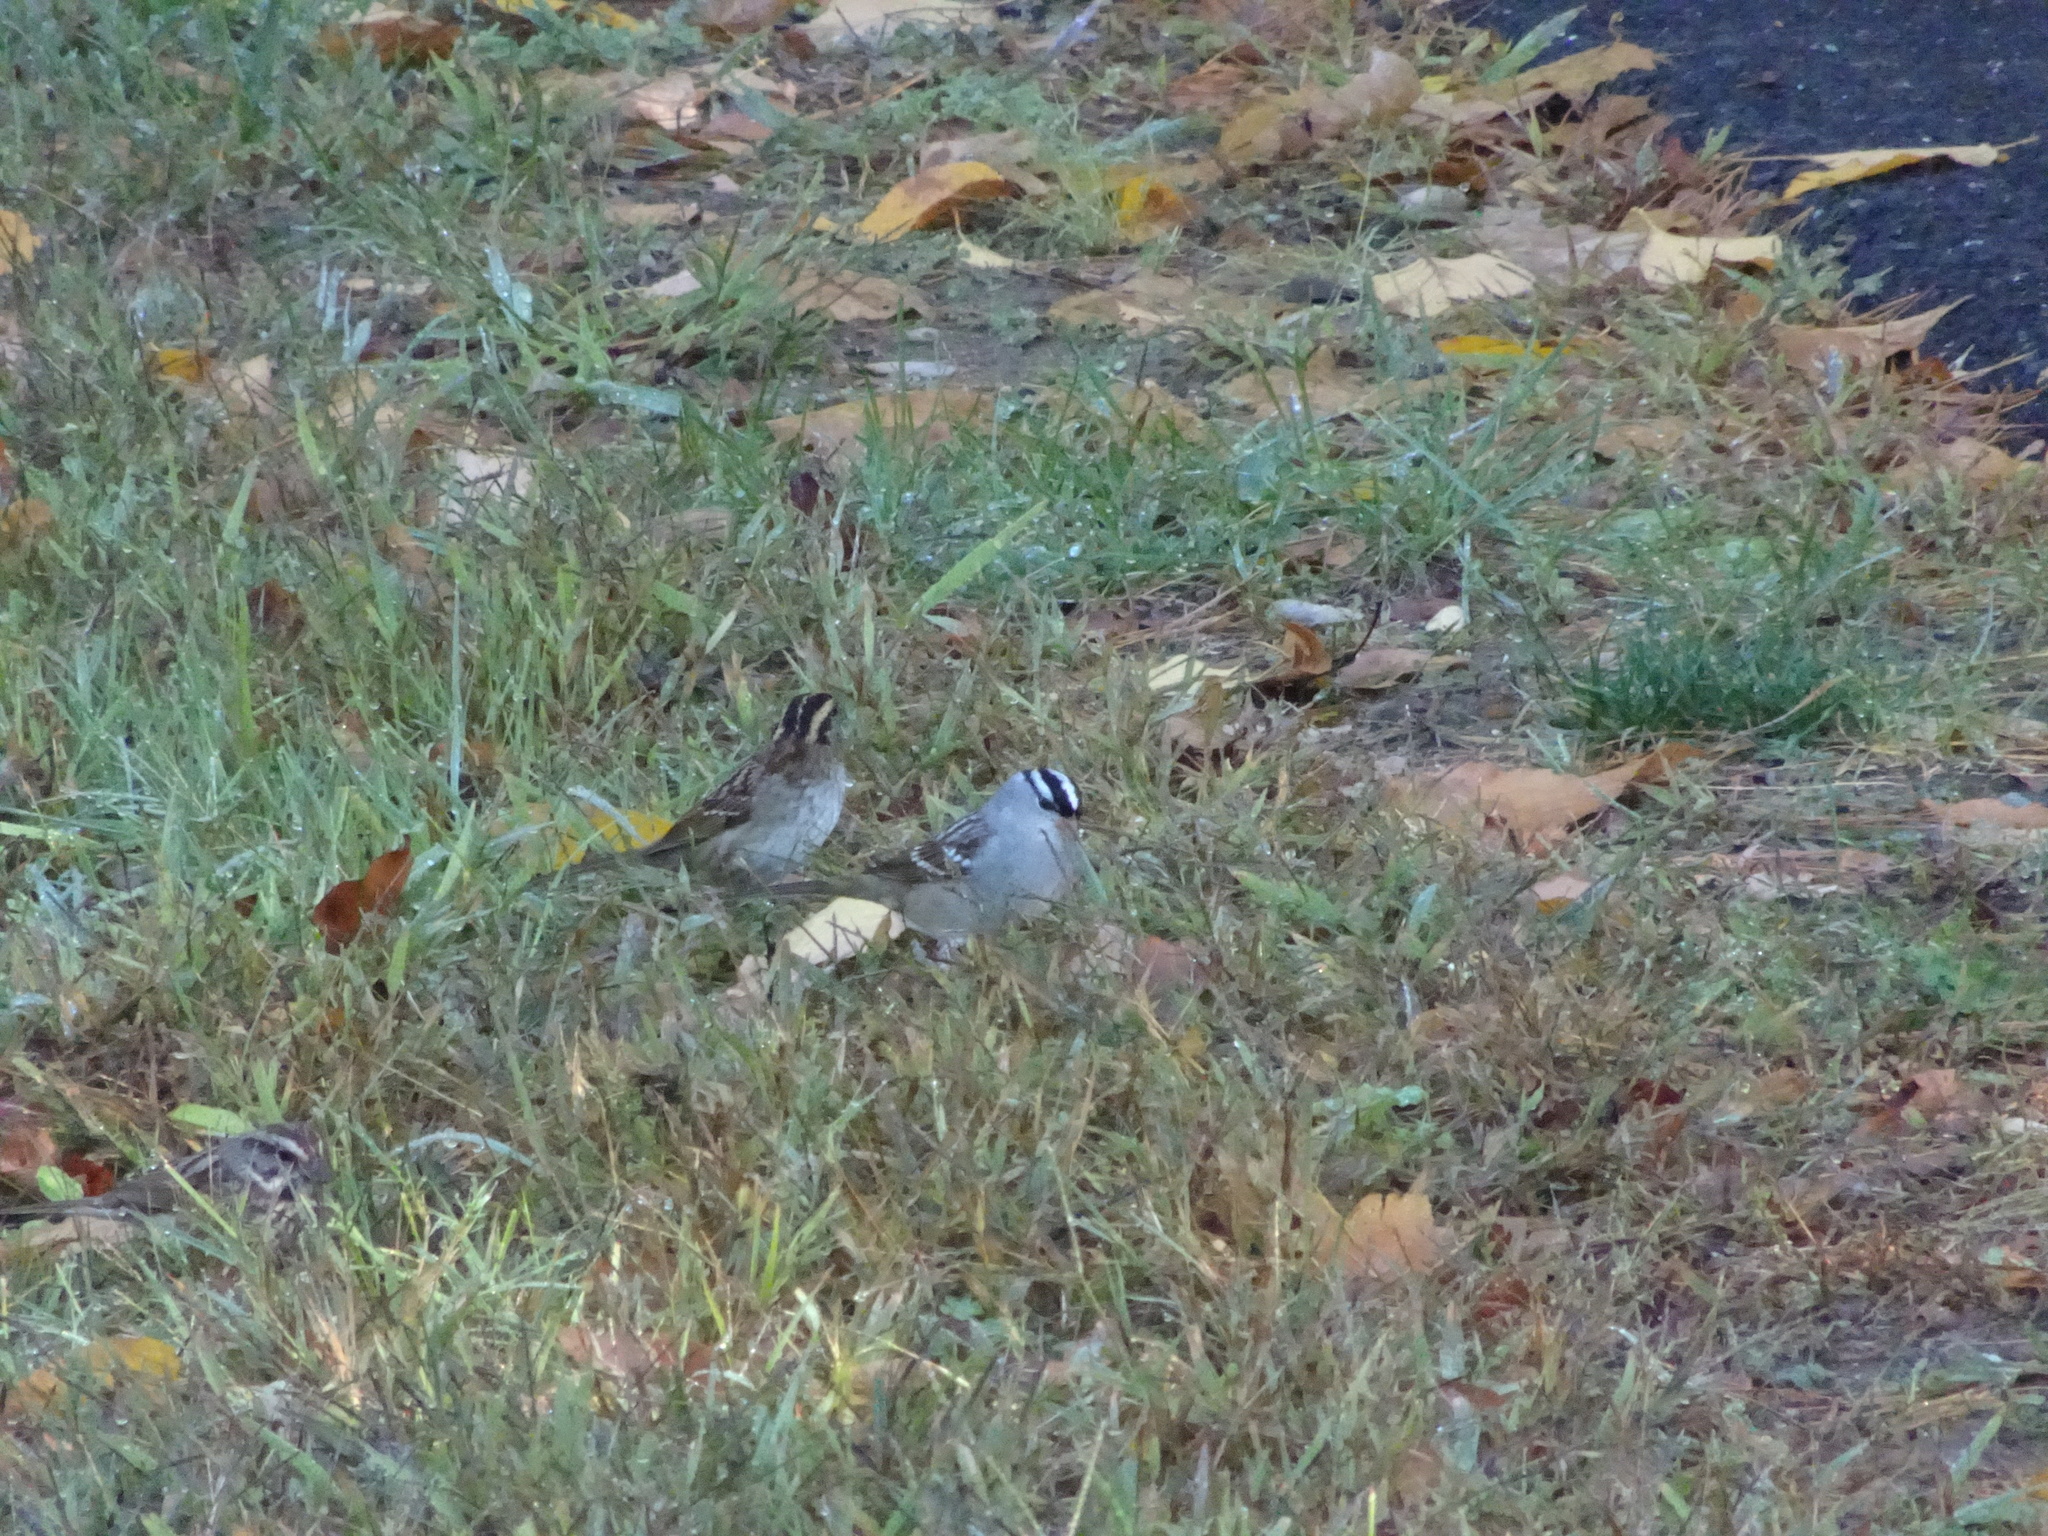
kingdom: Animalia
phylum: Chordata
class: Aves
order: Passeriformes
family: Passerellidae
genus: Zonotrichia
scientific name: Zonotrichia leucophrys
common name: White-crowned sparrow
